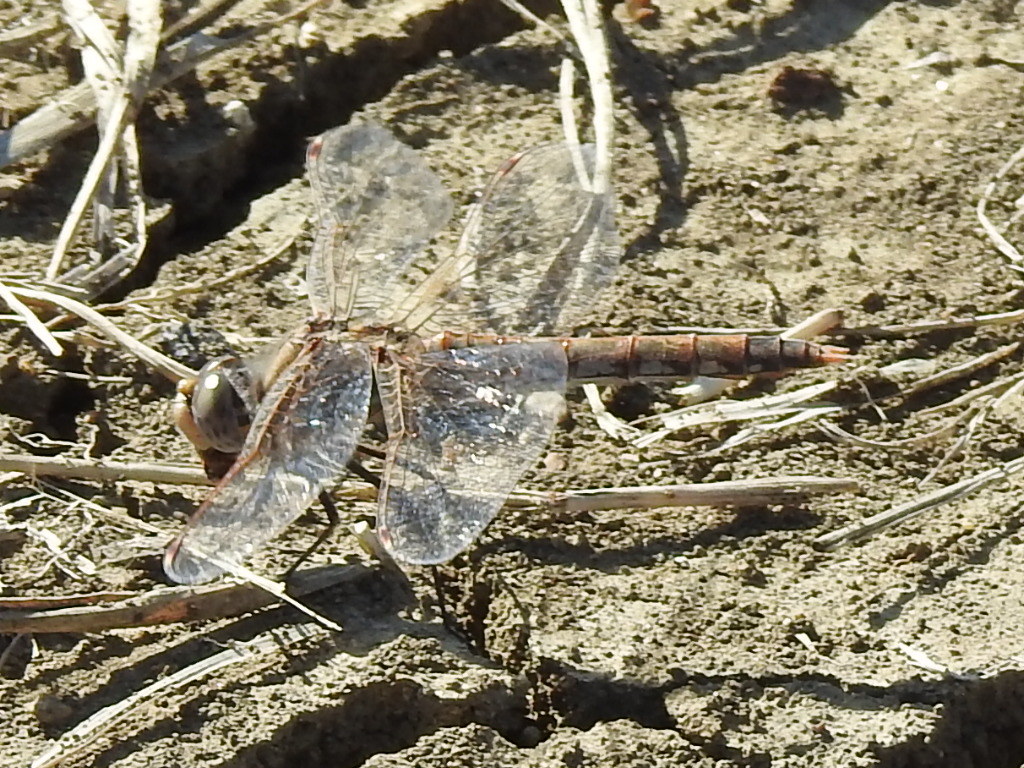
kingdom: Animalia
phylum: Arthropoda
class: Insecta
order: Odonata
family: Libellulidae
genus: Sympetrum
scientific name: Sympetrum corruptum
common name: Variegated meadowhawk
